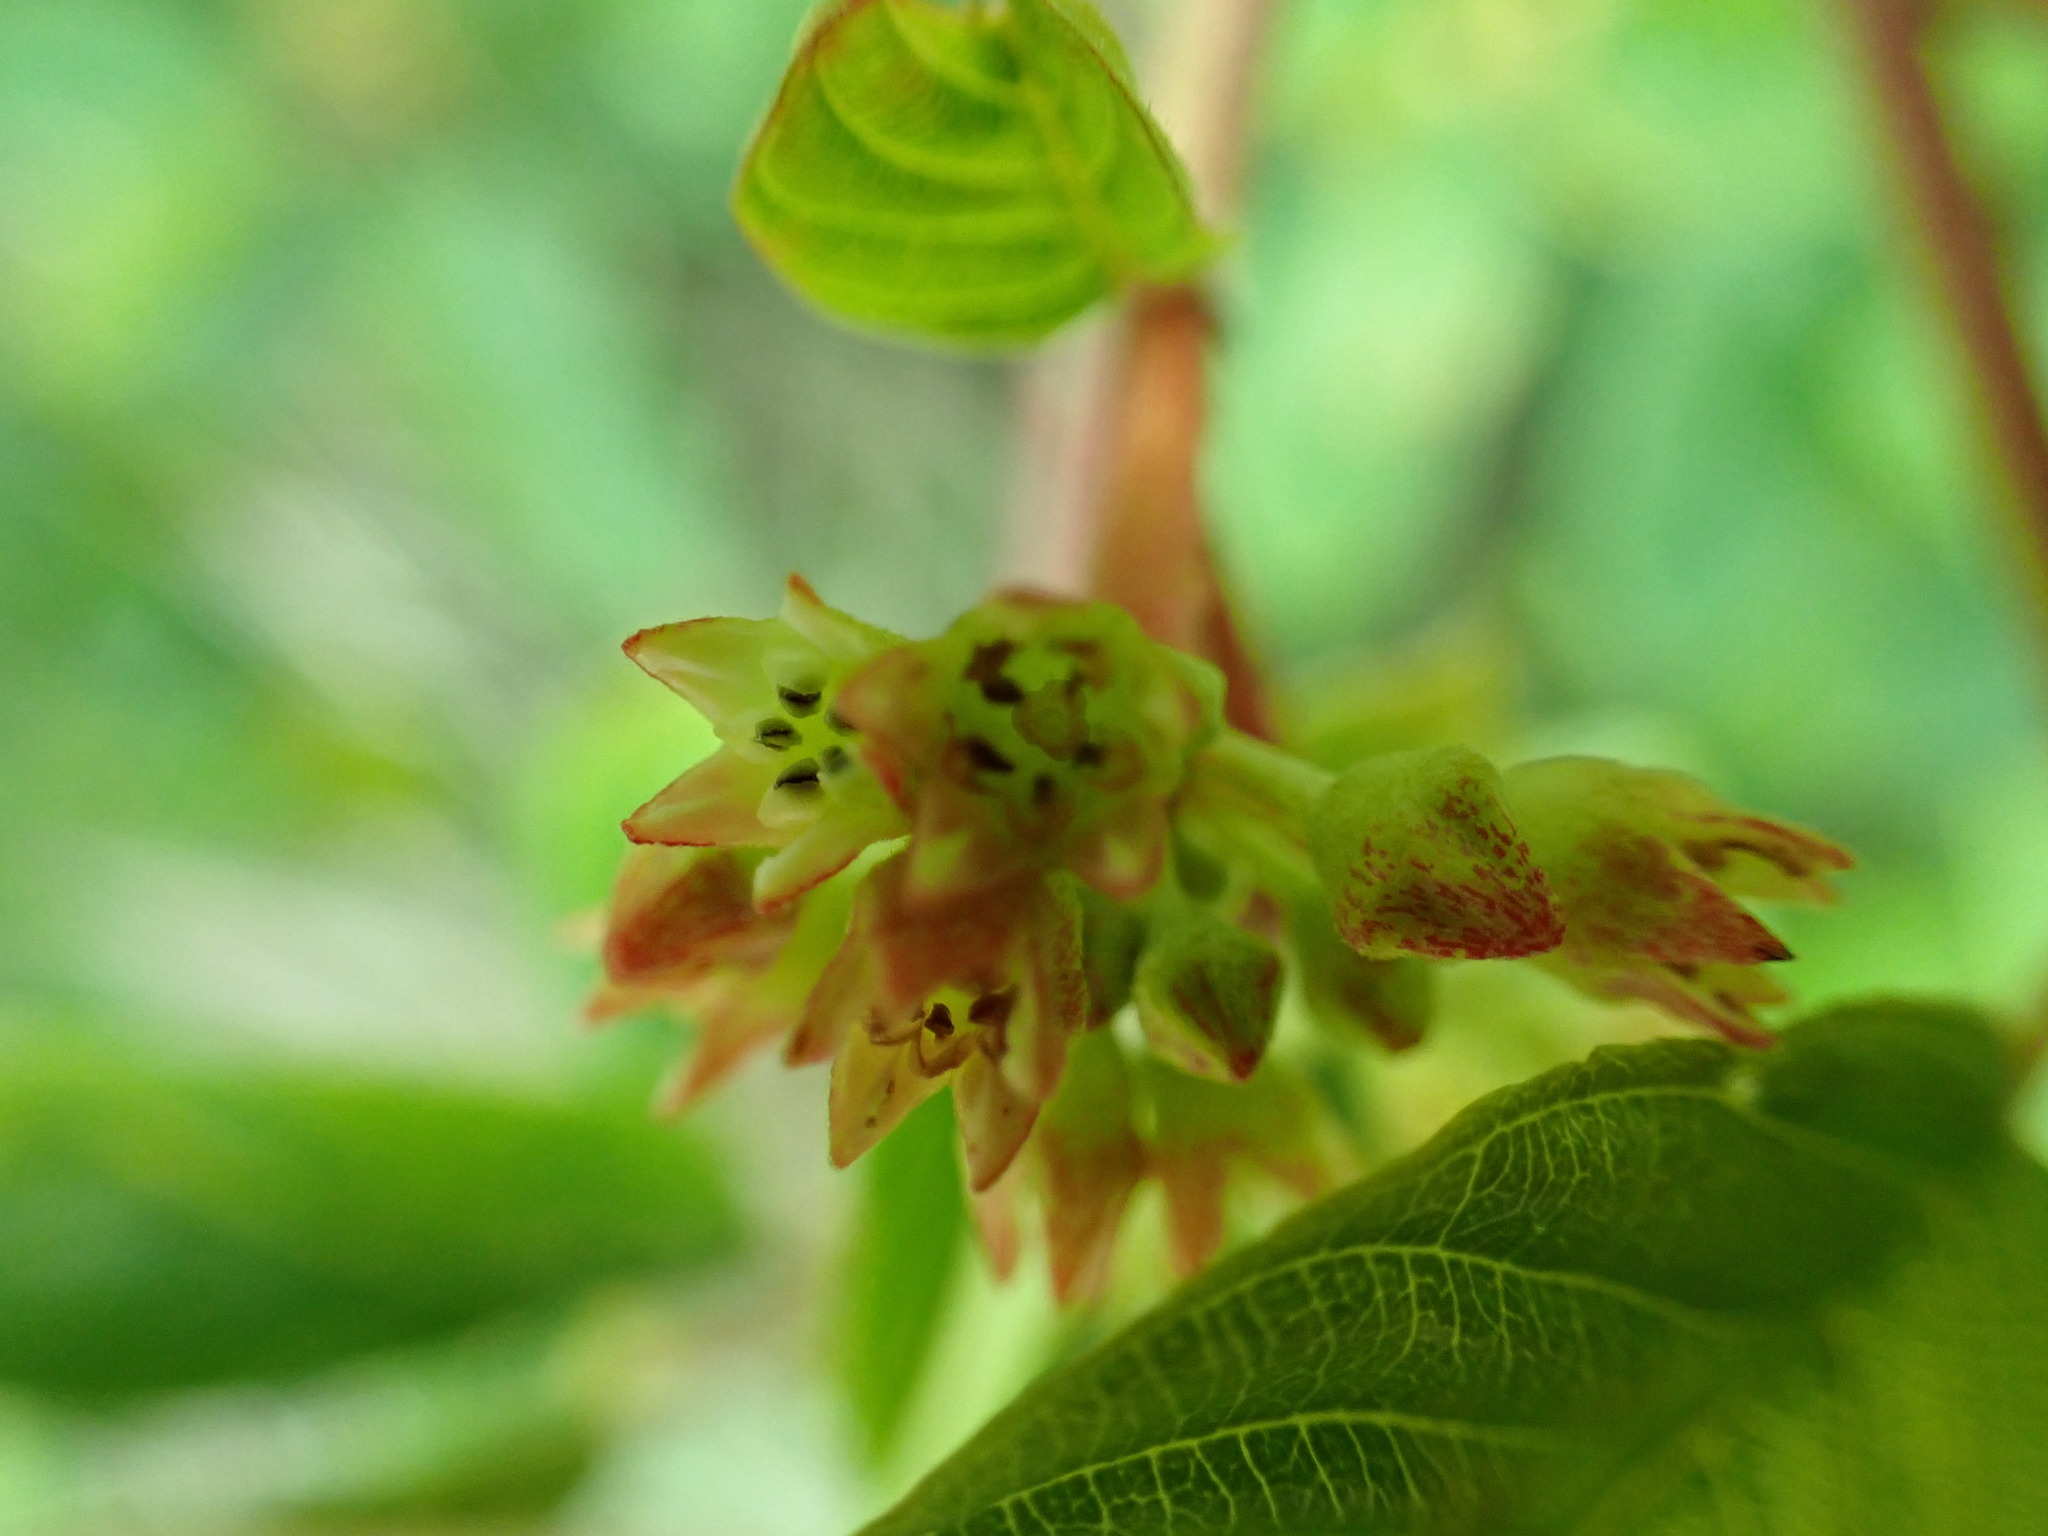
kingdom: Plantae
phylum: Tracheophyta
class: Magnoliopsida
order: Rosales
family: Rhamnaceae
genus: Frangula
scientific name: Frangula purshiana
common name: Cascara buckthorn
